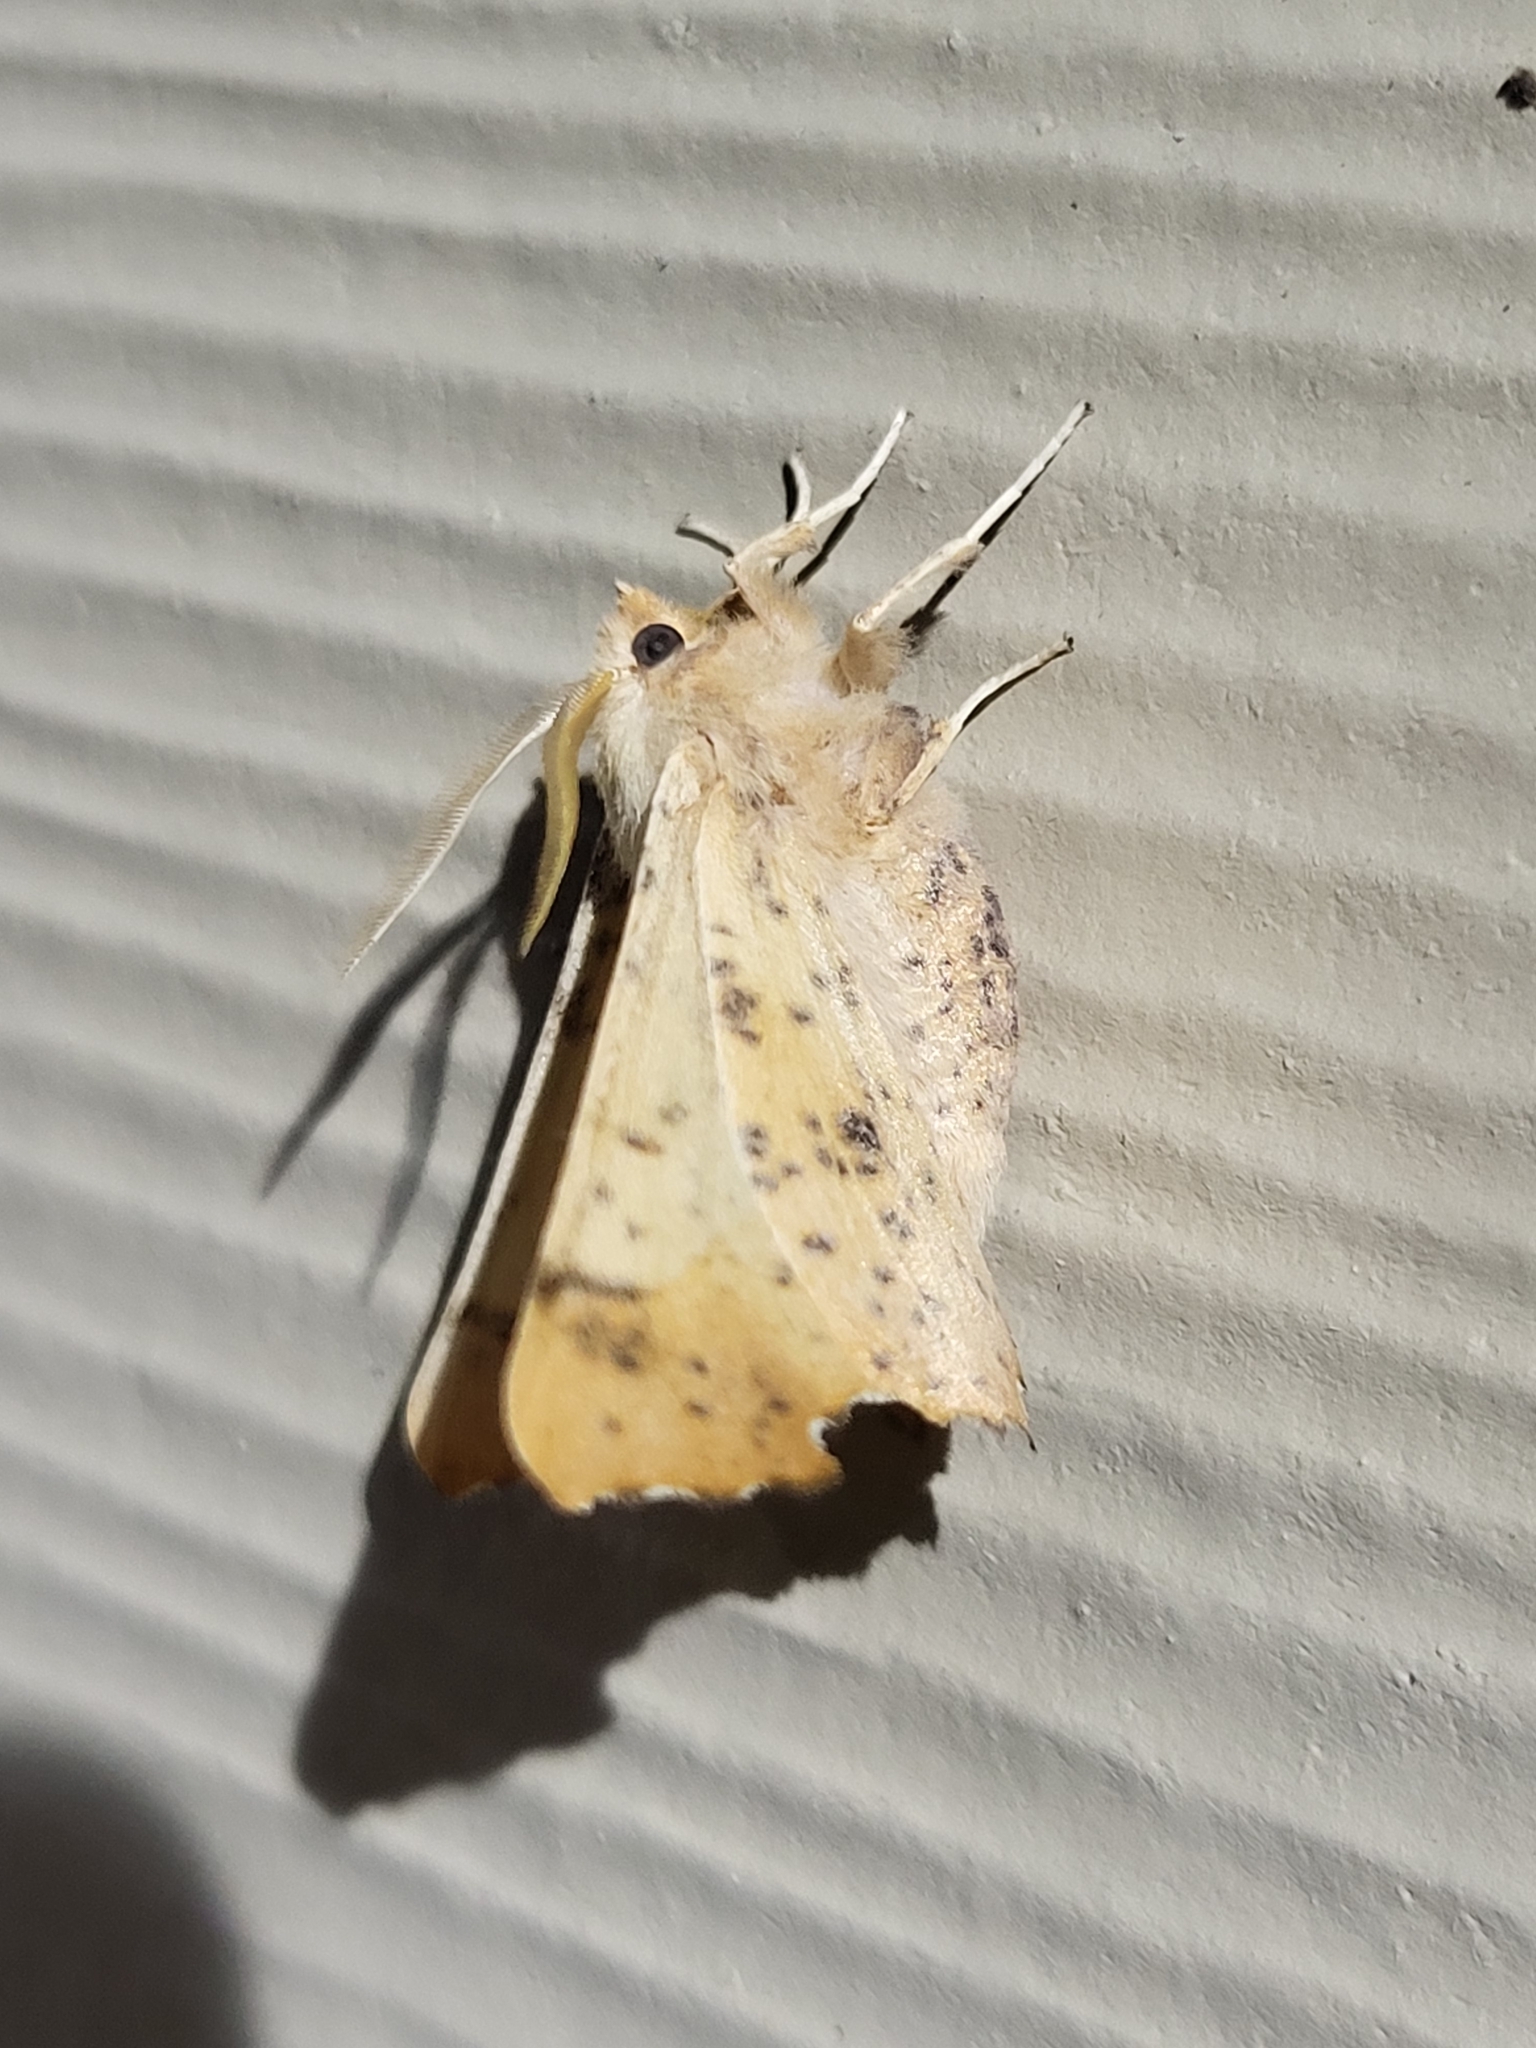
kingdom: Animalia
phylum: Arthropoda
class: Insecta
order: Lepidoptera
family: Geometridae
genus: Ennomos
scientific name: Ennomos magnaria
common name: Maple spanworm
